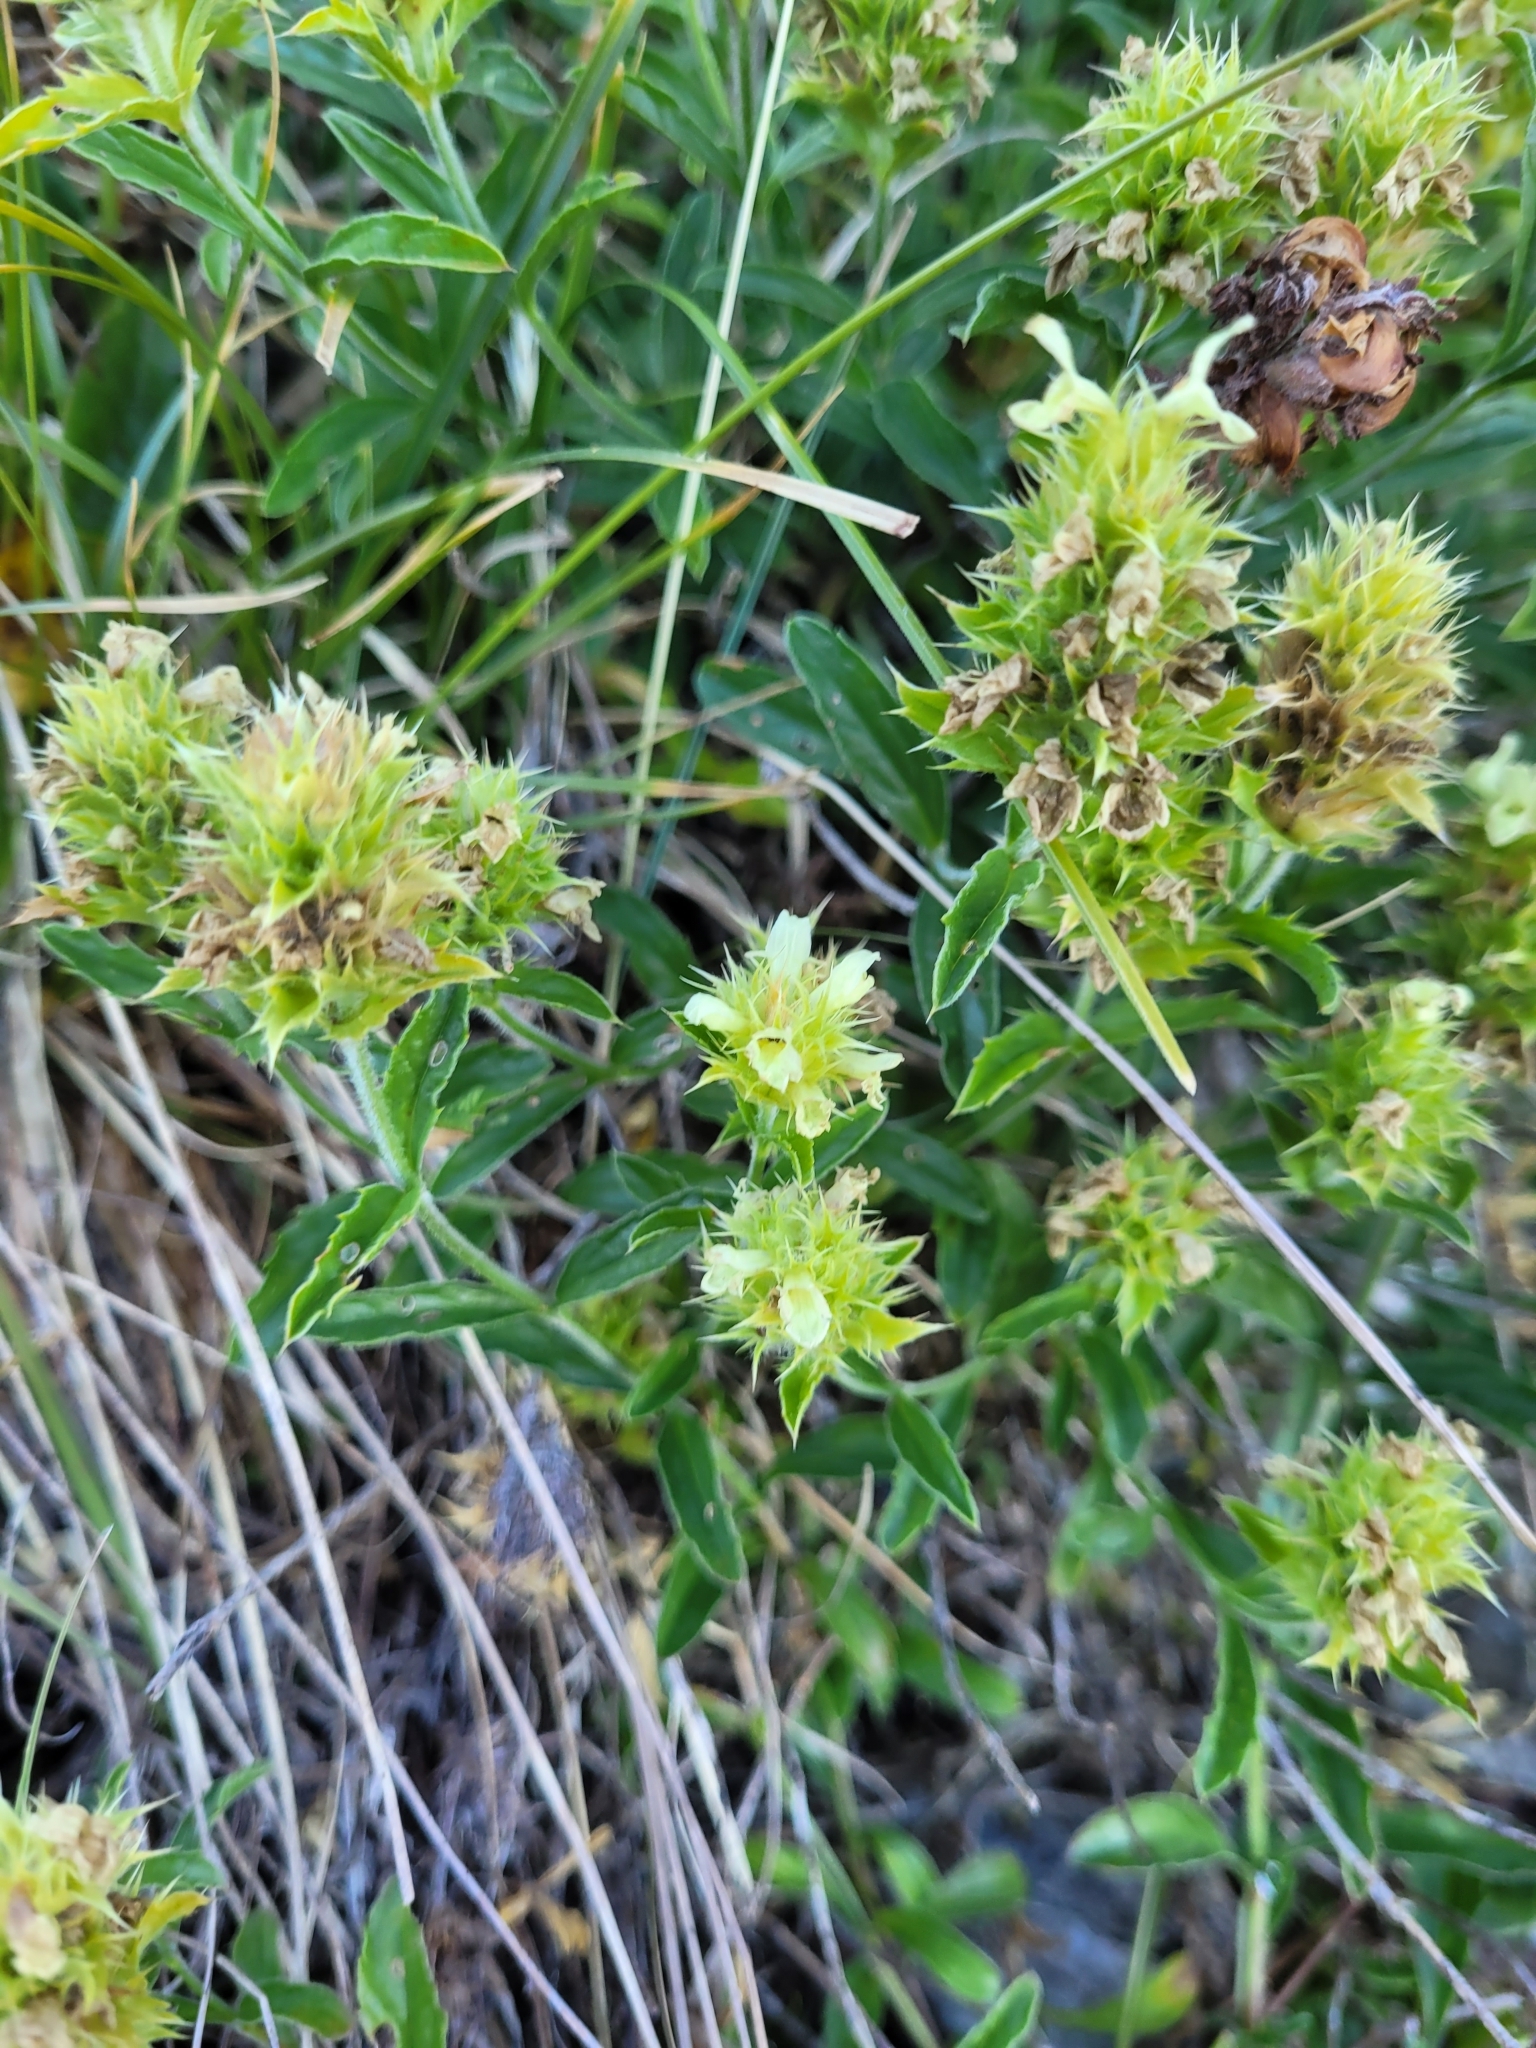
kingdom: Plantae
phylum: Tracheophyta
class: Magnoliopsida
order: Lamiales
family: Lamiaceae
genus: Sideritis
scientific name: Sideritis hyssopifolia
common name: Mountain tea
